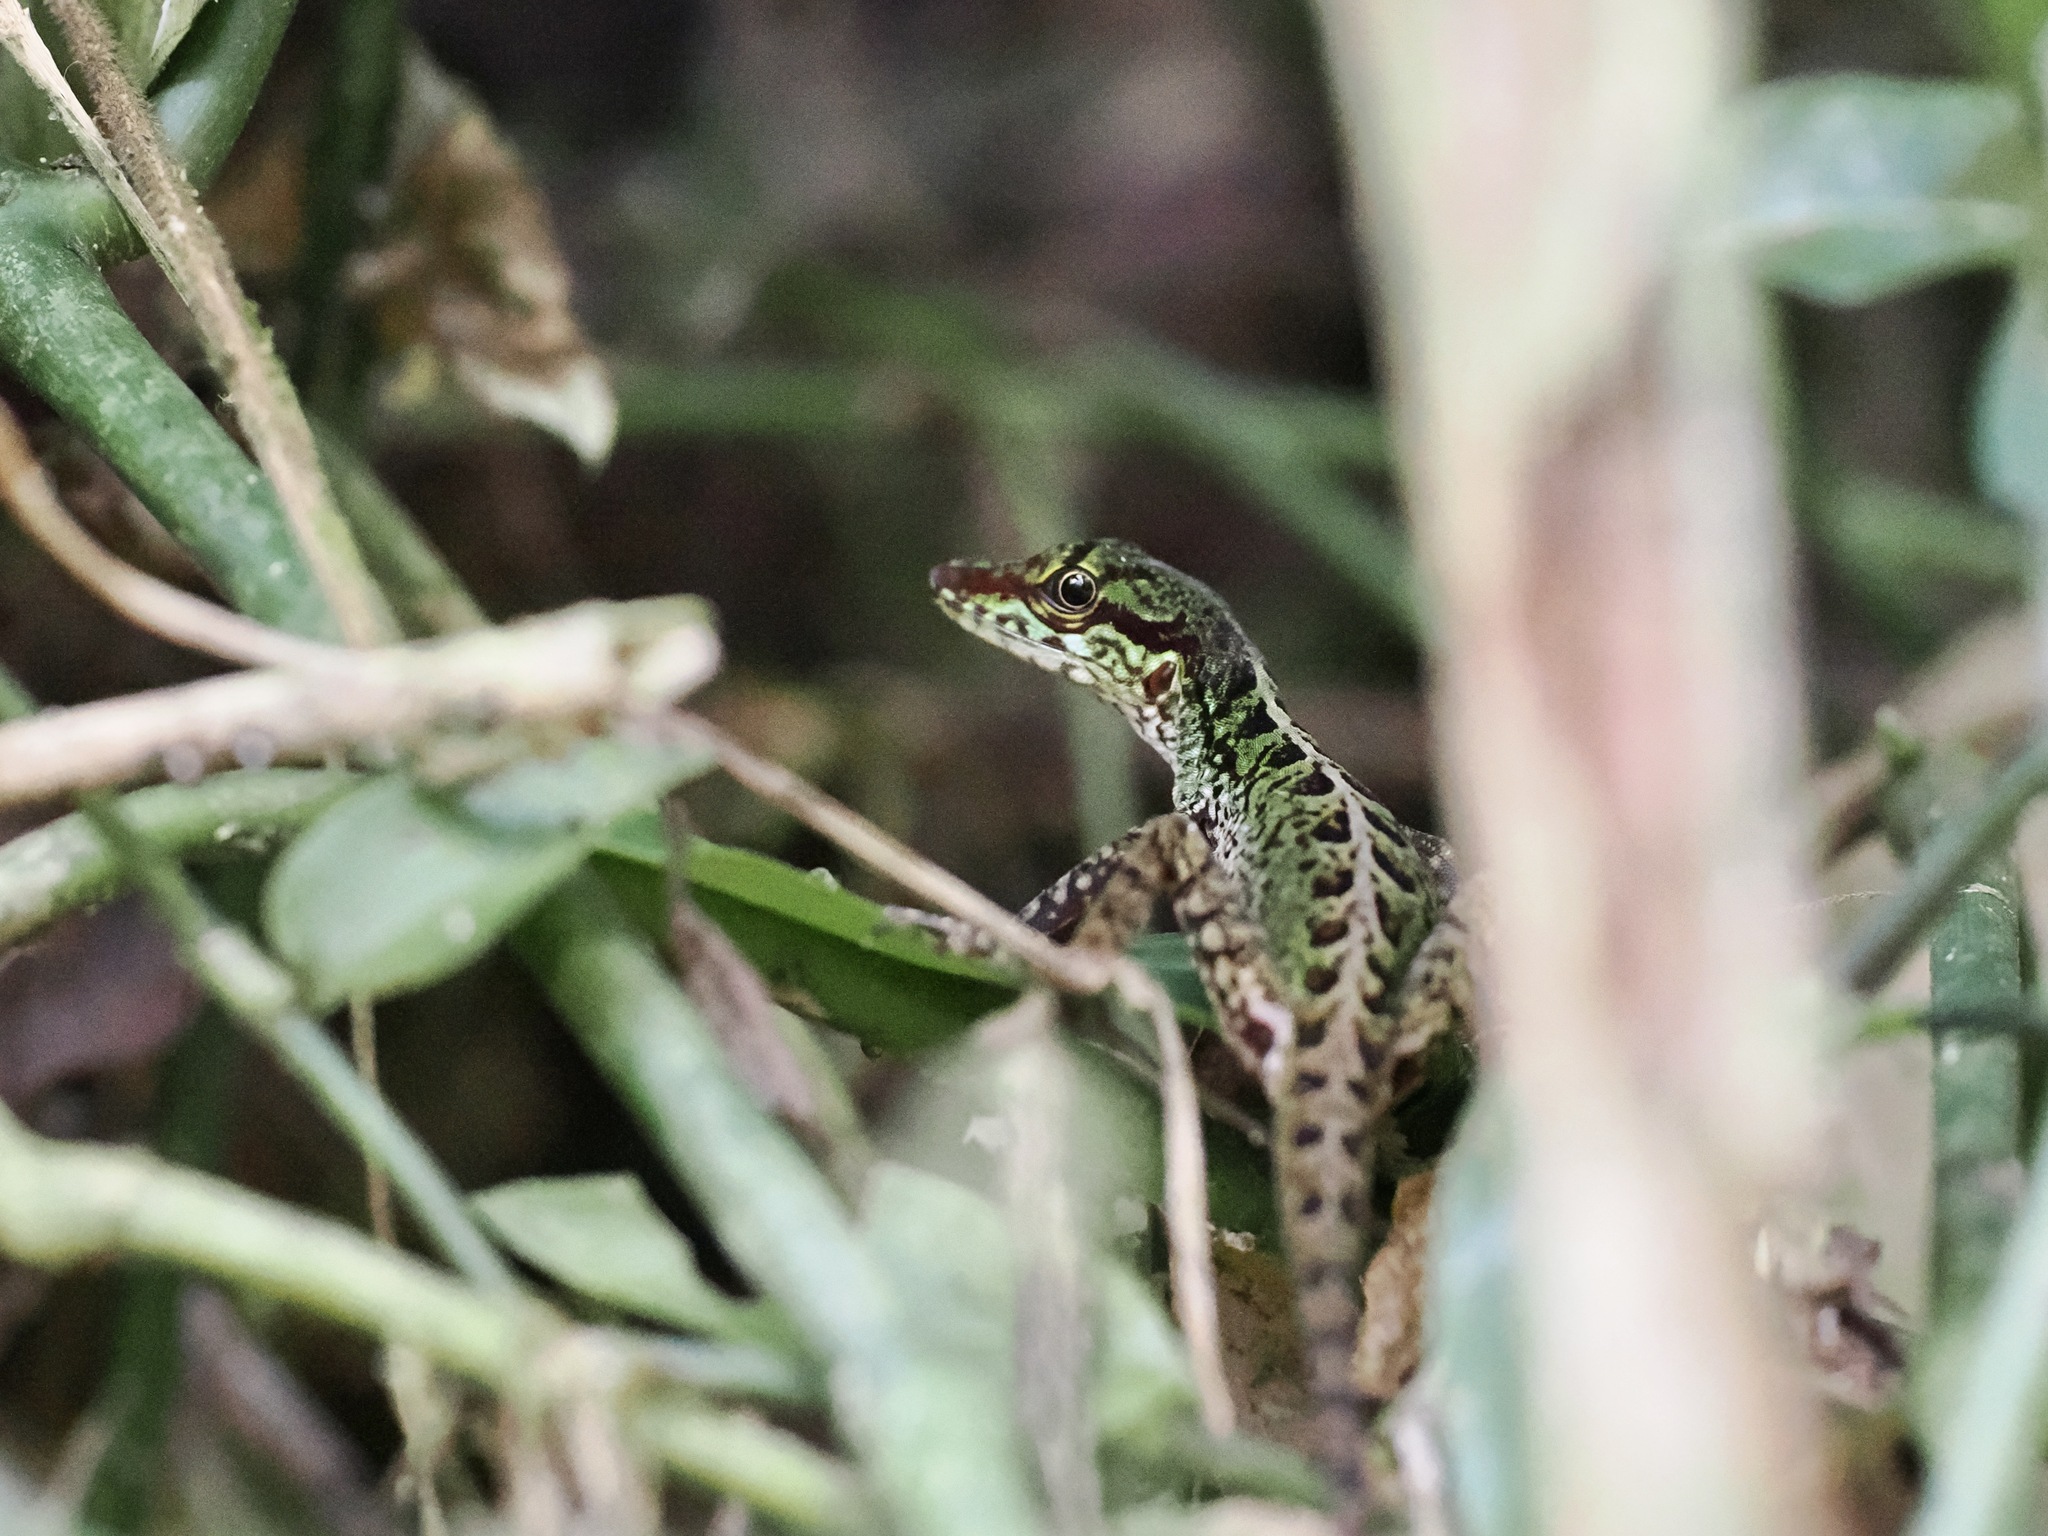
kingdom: Animalia
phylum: Chordata
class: Squamata
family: Dactyloidae
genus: Anolis
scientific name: Anolis ventrimaculatus
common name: Speckled anole
